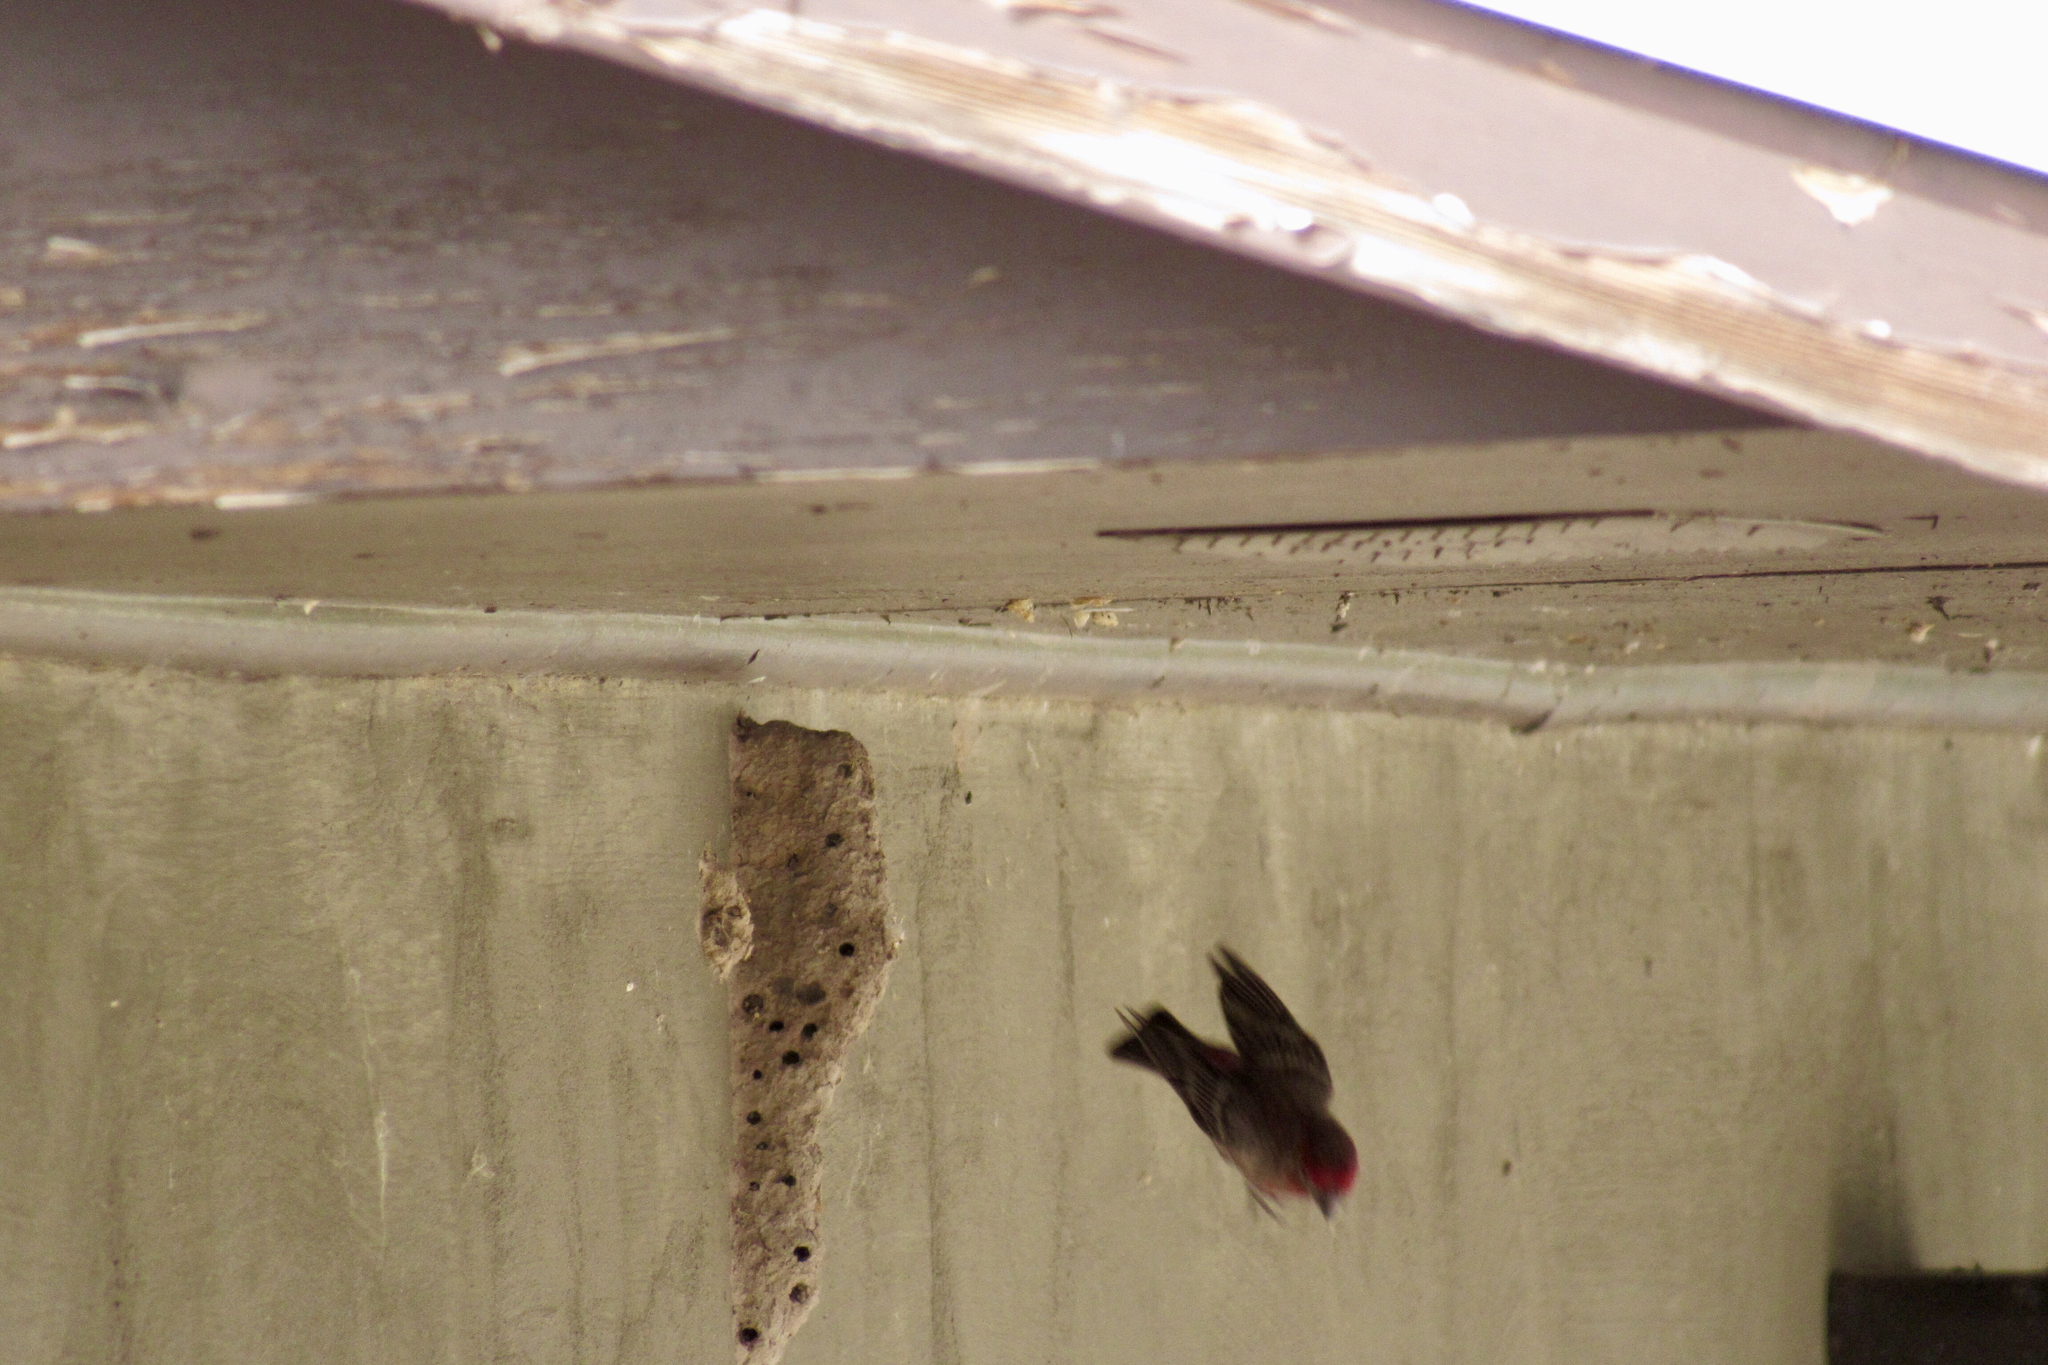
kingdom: Animalia
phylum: Chordata
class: Aves
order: Passeriformes
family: Fringillidae
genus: Haemorhous
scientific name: Haemorhous mexicanus
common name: House finch
